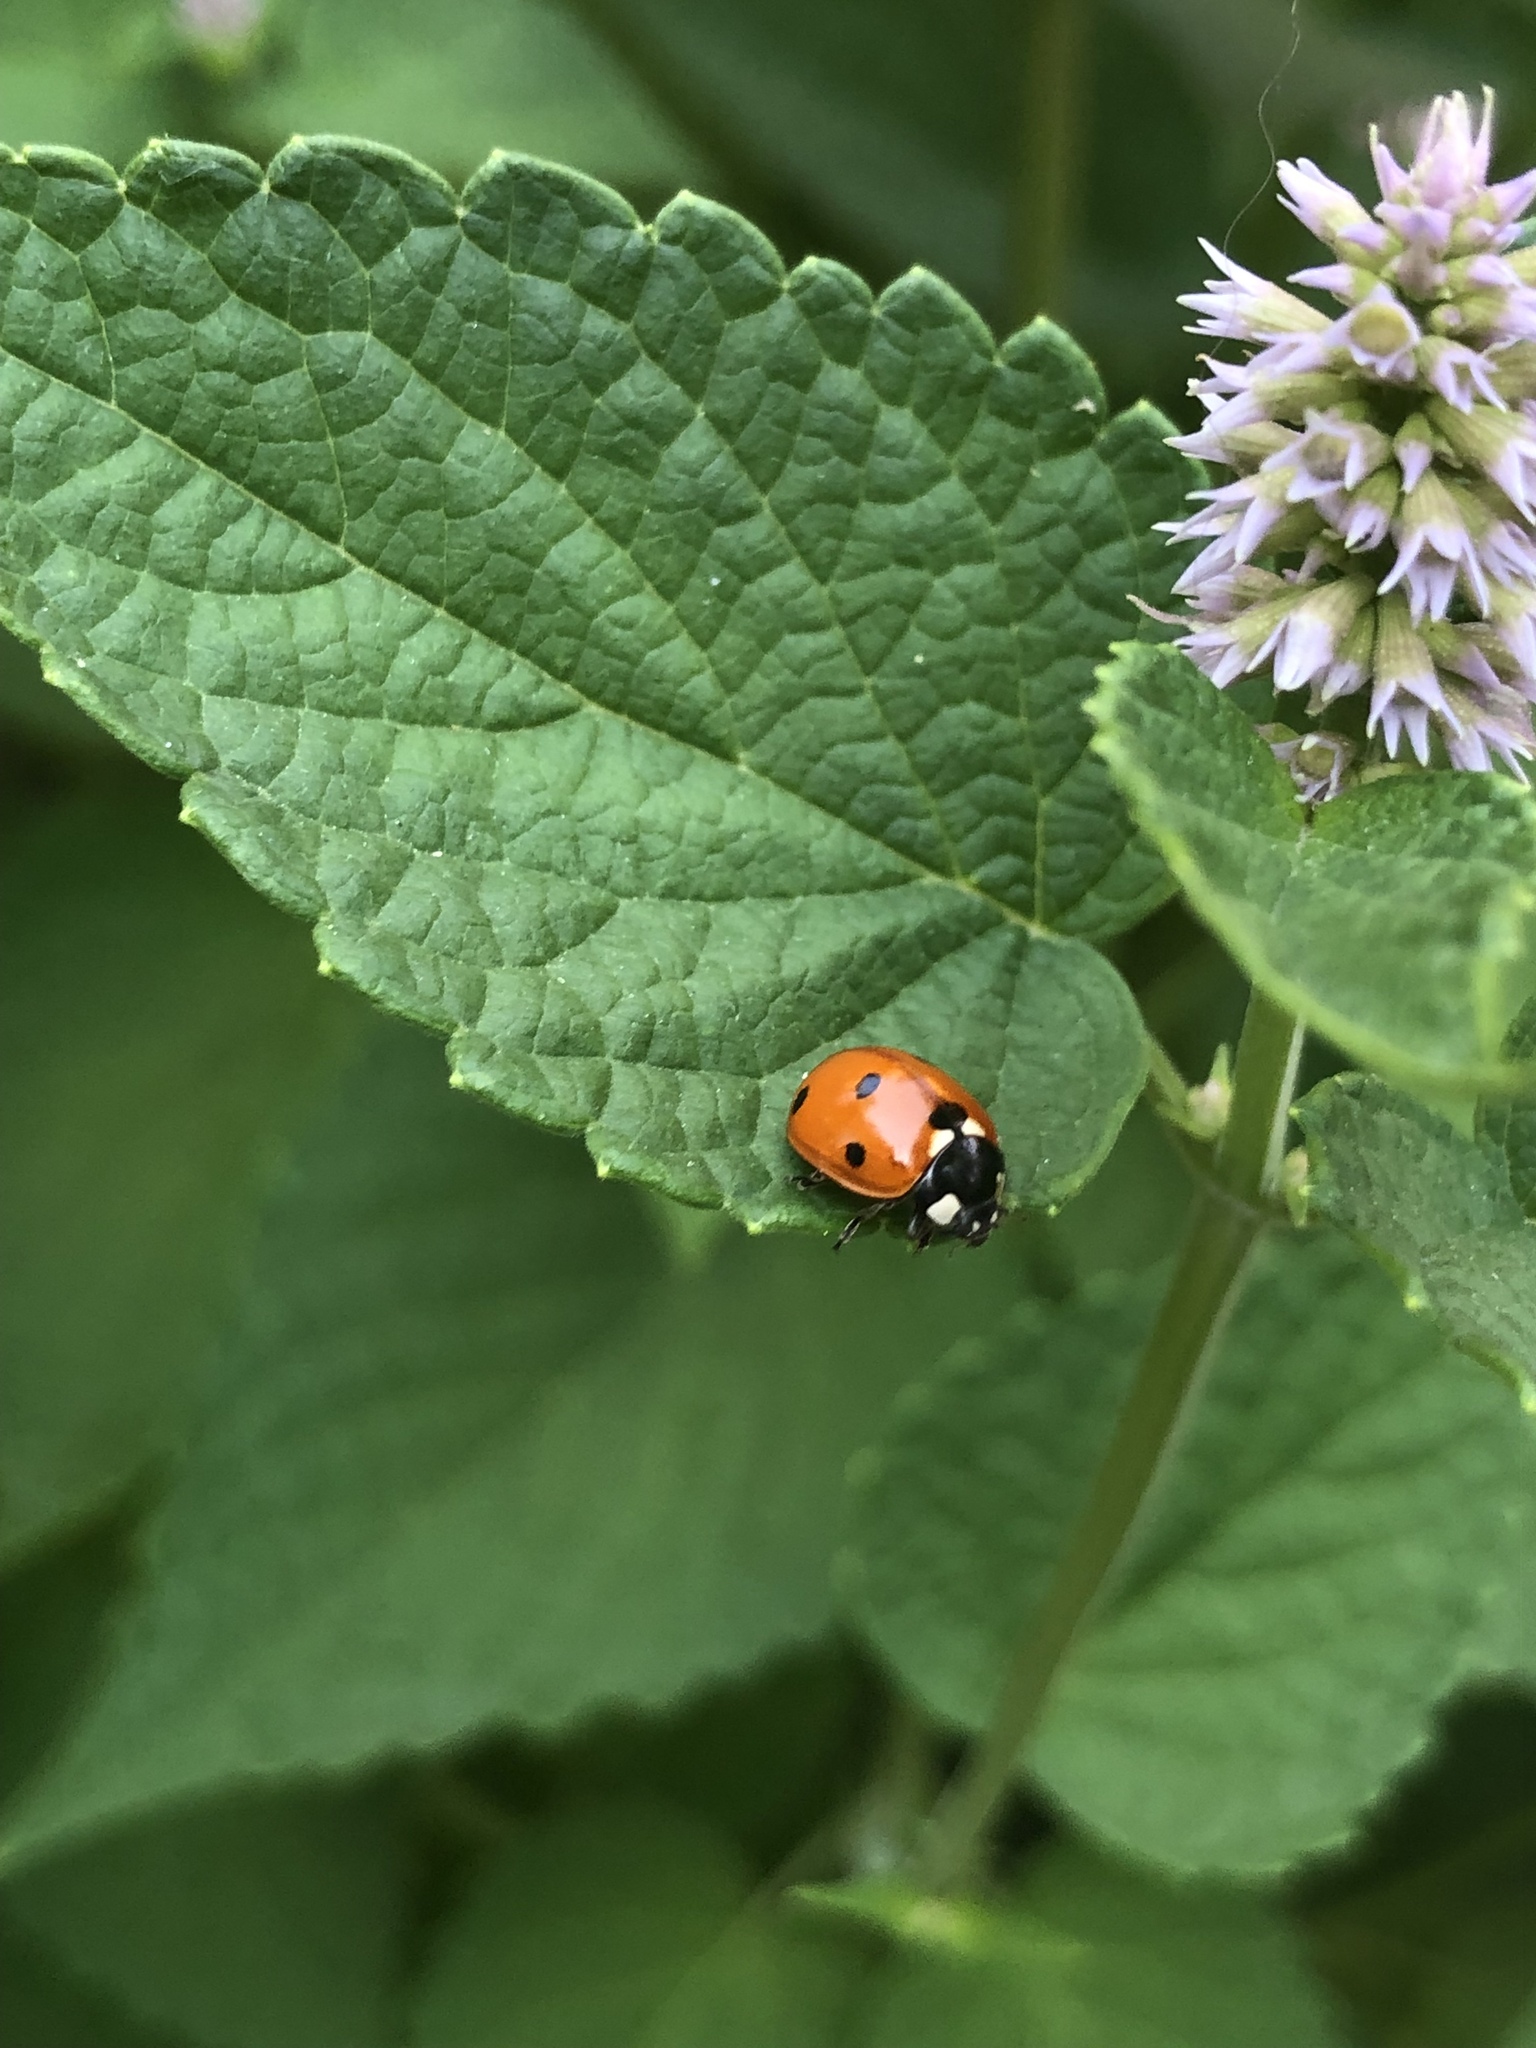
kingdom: Animalia
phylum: Arthropoda
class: Insecta
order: Coleoptera
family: Coccinellidae
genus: Coccinella
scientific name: Coccinella septempunctata
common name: Sevenspotted lady beetle
